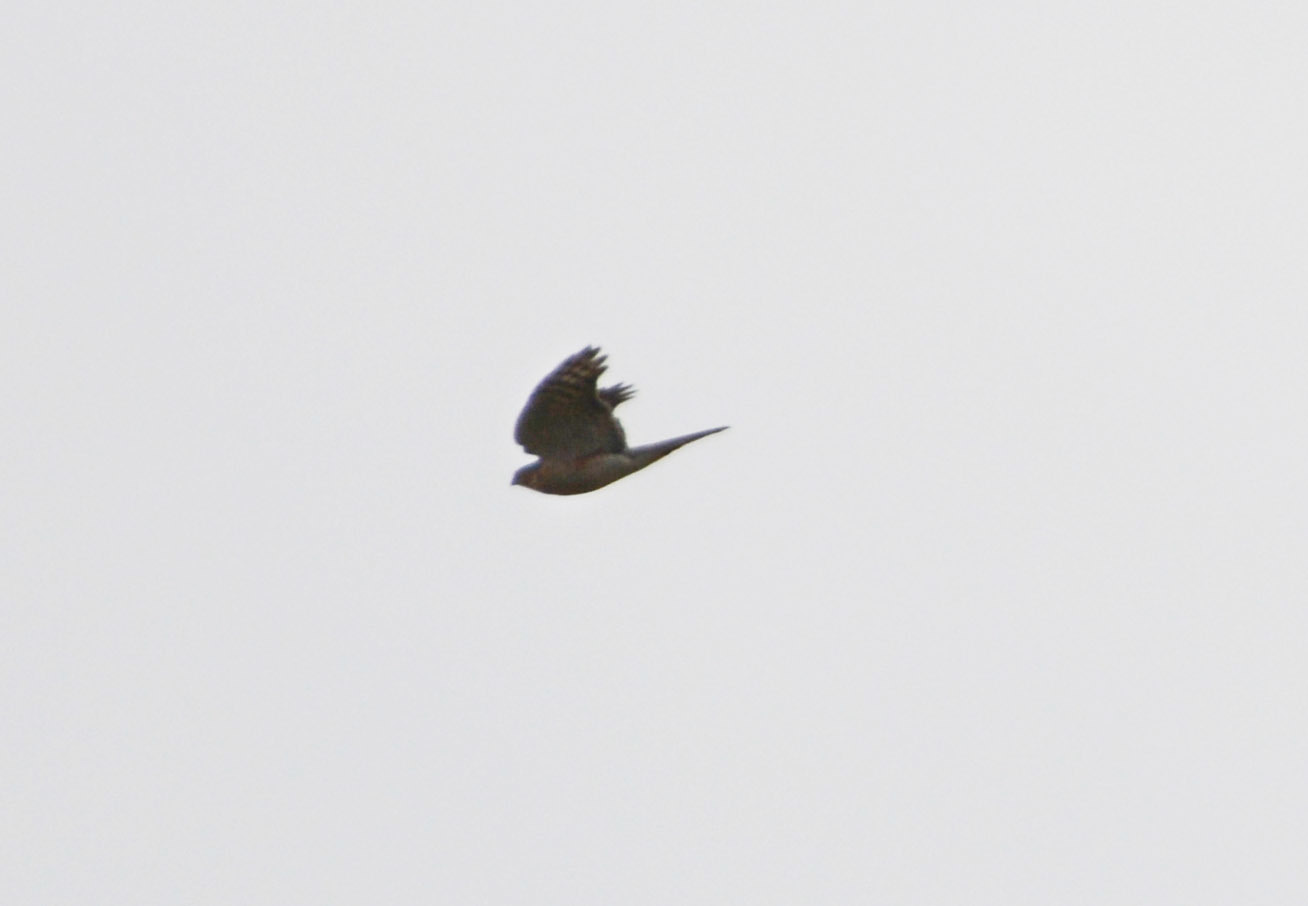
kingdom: Animalia
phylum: Chordata
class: Aves
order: Accipitriformes
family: Accipitridae
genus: Accipiter
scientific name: Accipiter nisus
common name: Eurasian sparrowhawk
